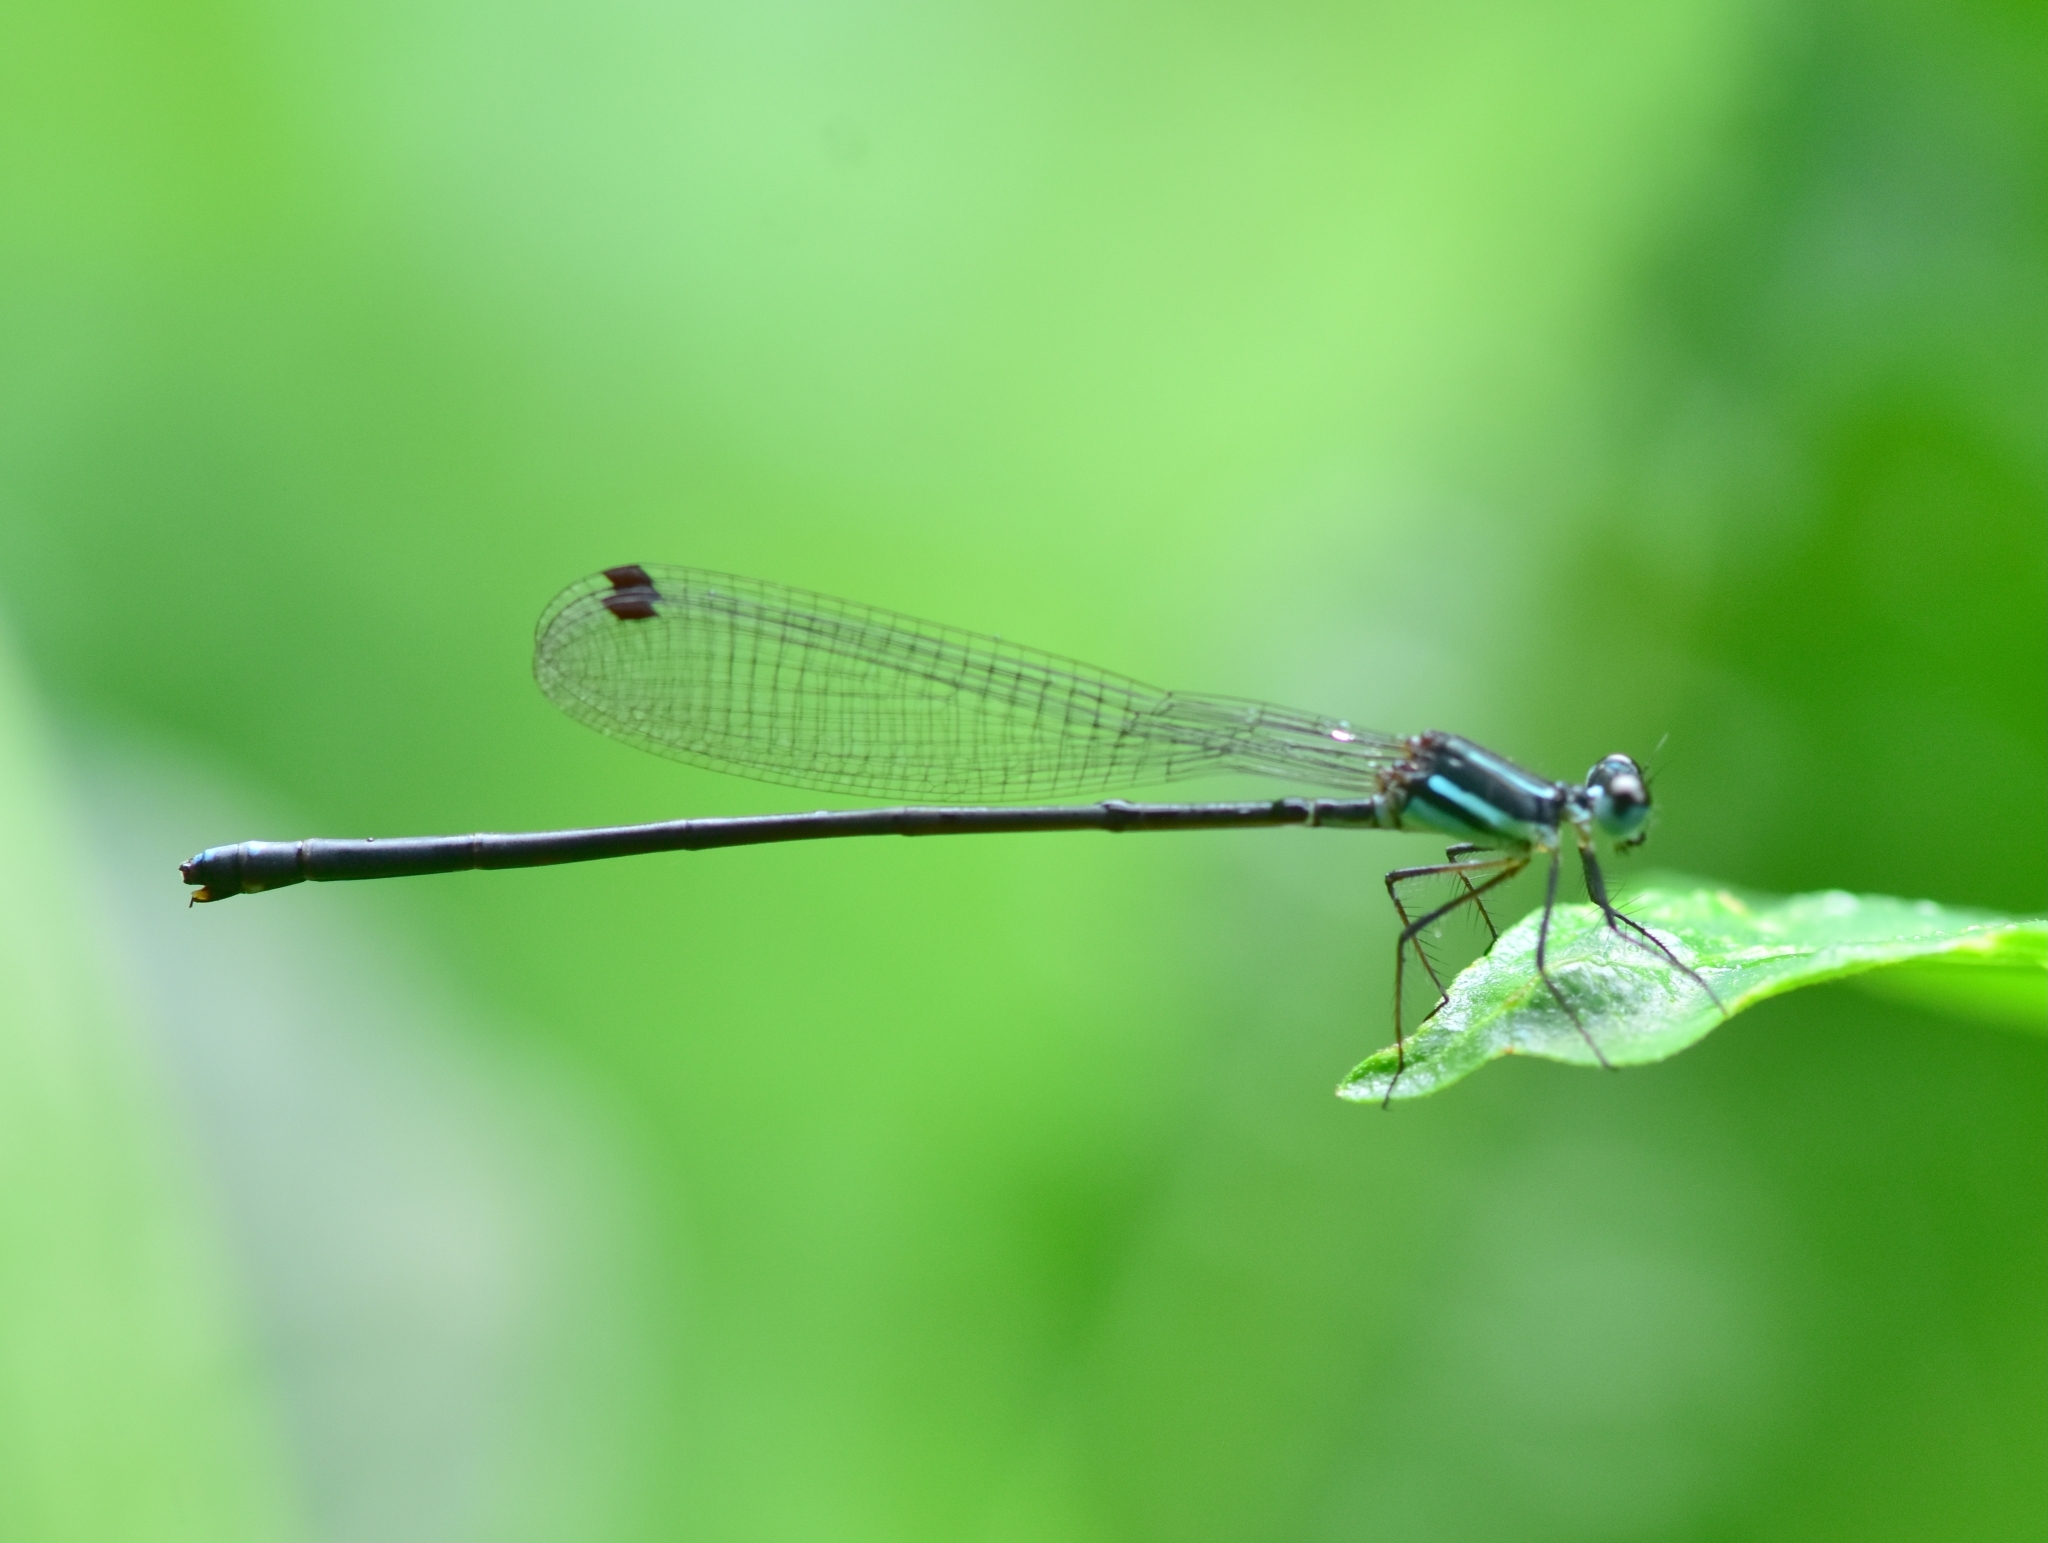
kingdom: Animalia
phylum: Arthropoda
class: Insecta
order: Odonata
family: Platycnemididae
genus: Esme
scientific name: Esme mudiensis
